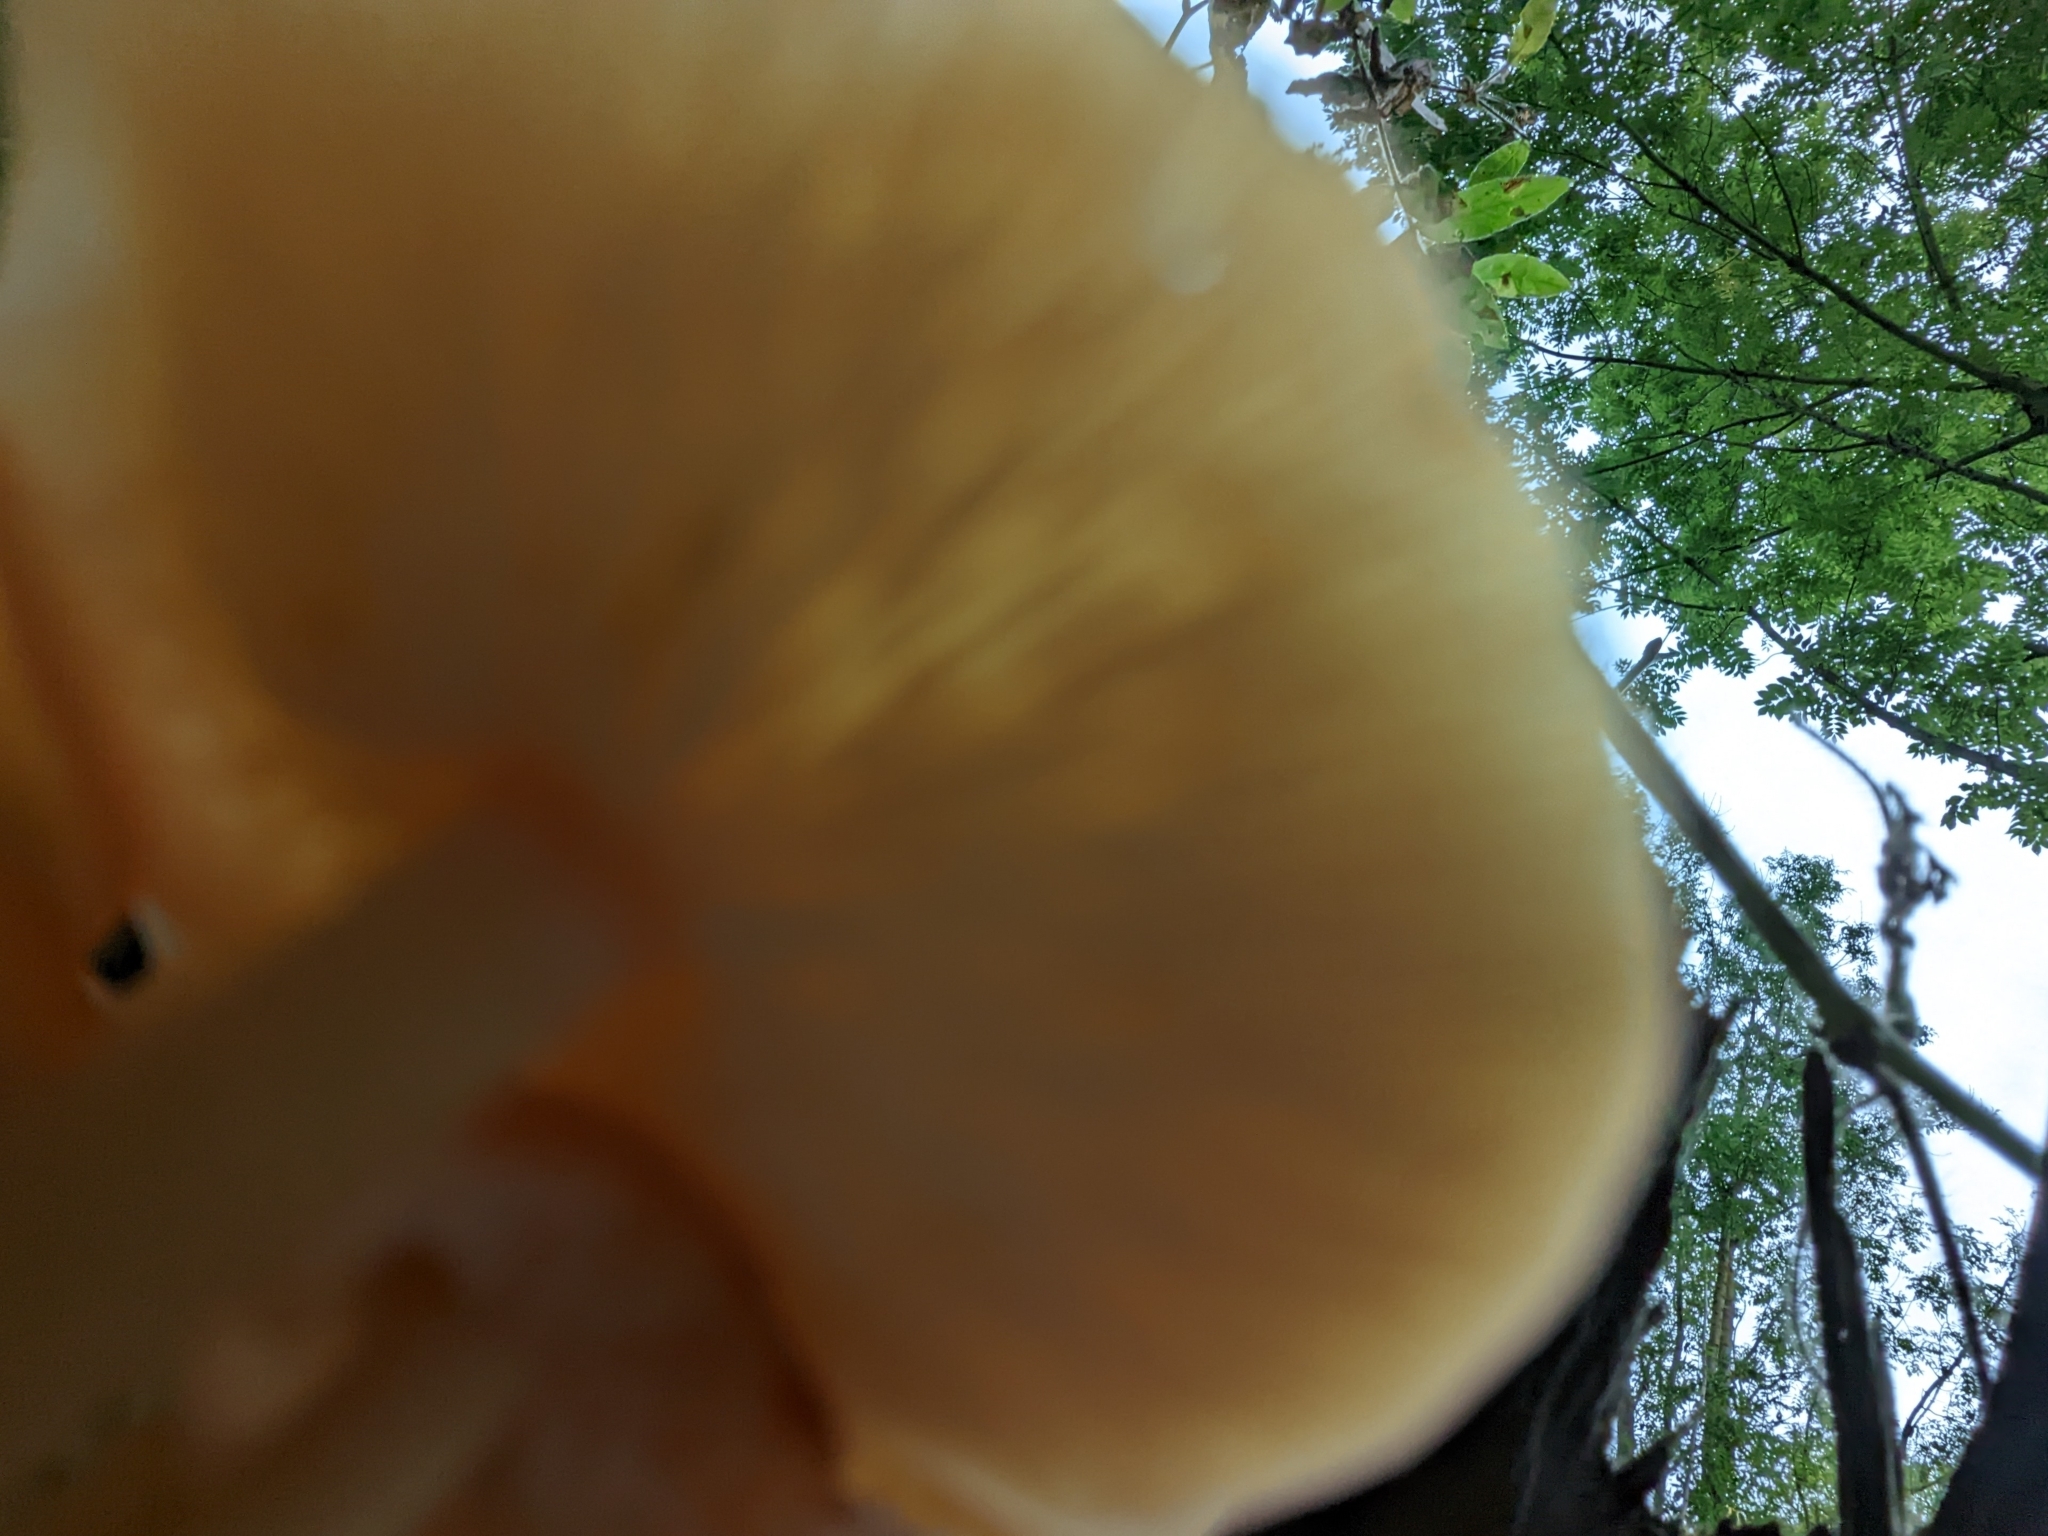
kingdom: Fungi
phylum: Basidiomycota
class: Agaricomycetes
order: Agaricales
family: Physalacriaceae
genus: Flammulina
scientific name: Flammulina
